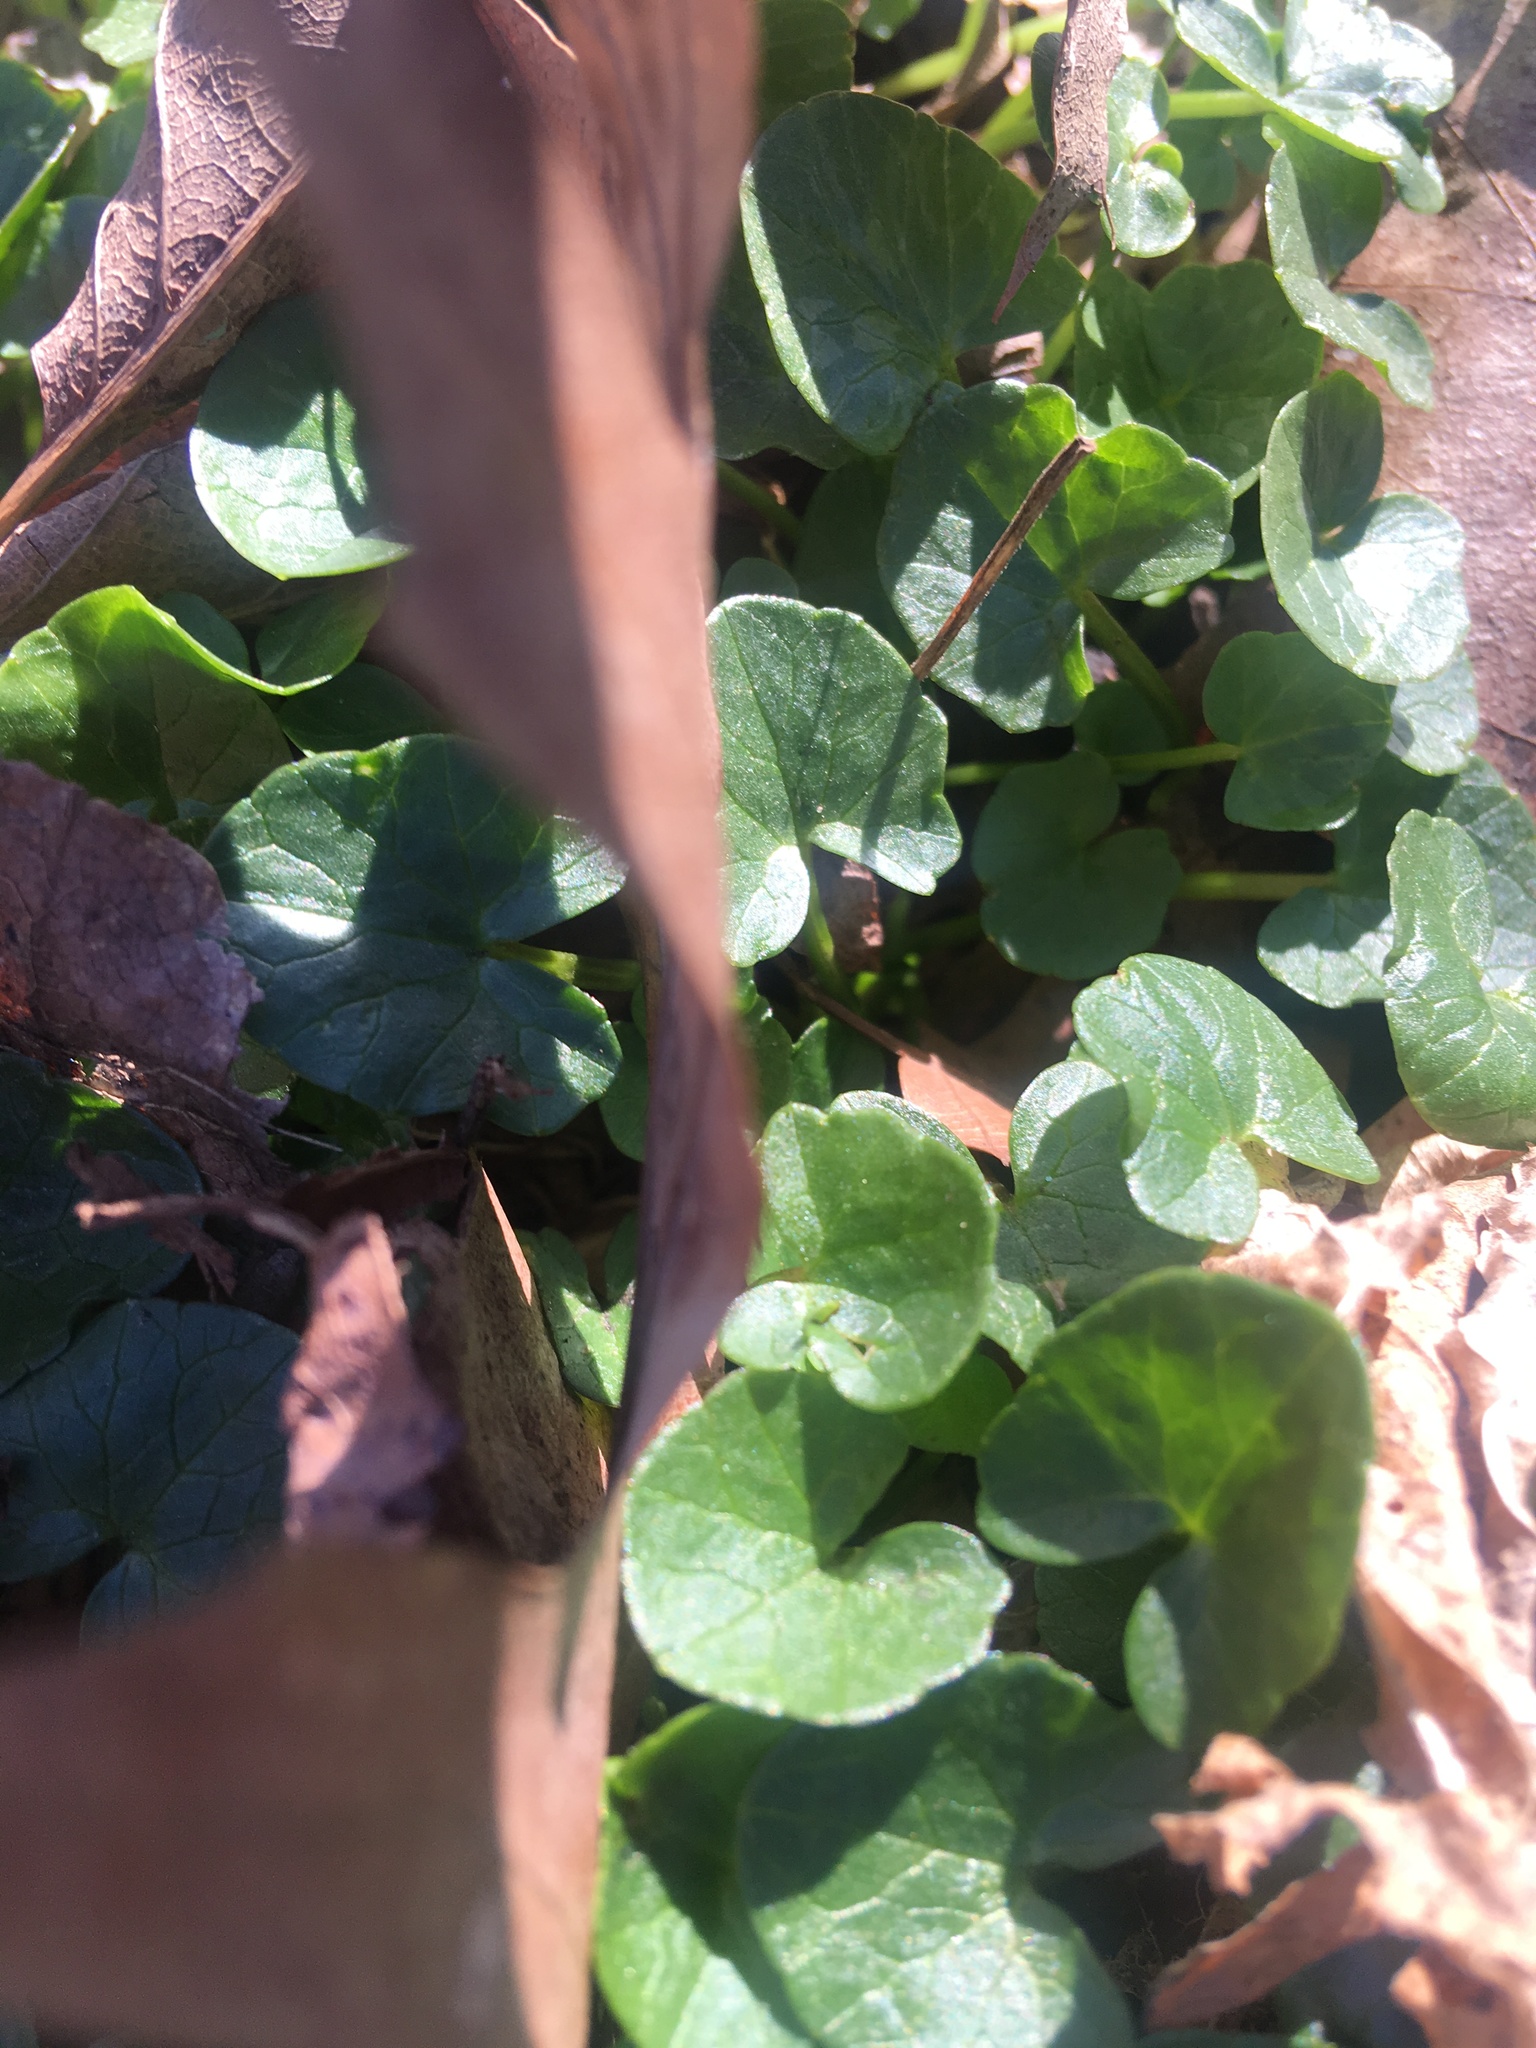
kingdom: Plantae
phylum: Tracheophyta
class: Magnoliopsida
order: Ranunculales
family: Ranunculaceae
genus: Ficaria
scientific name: Ficaria verna
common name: Lesser celandine
